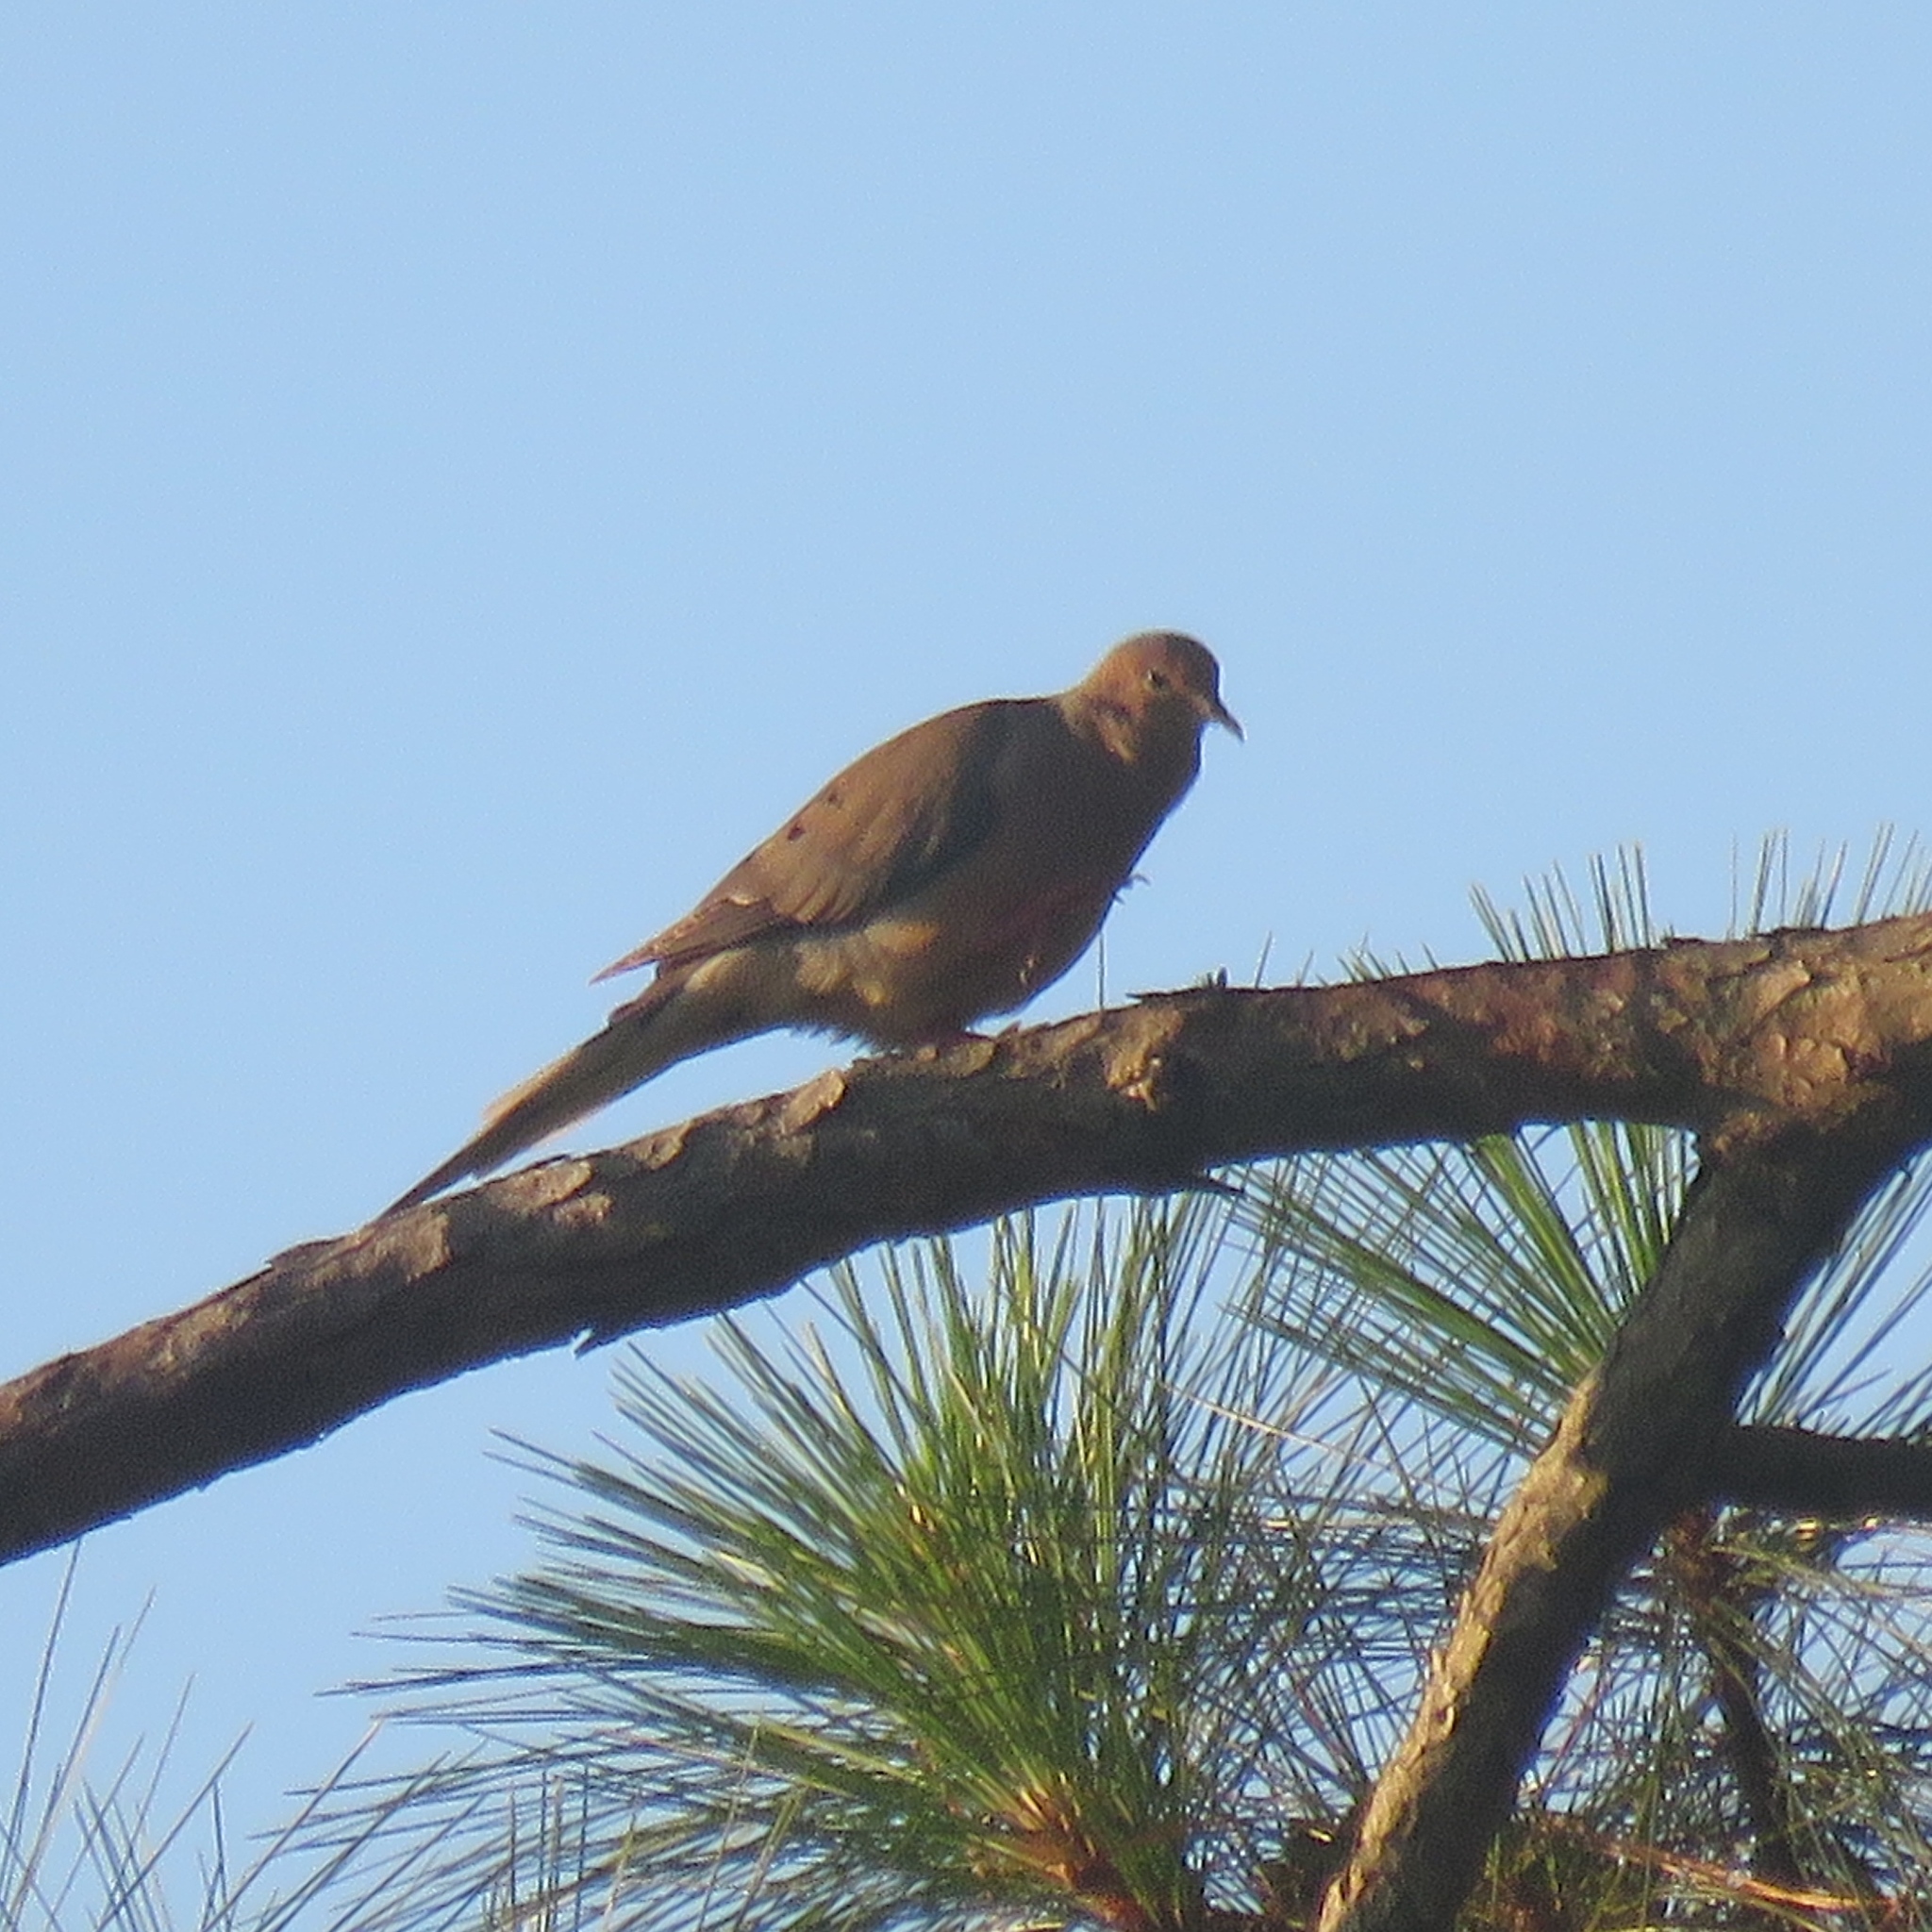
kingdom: Animalia
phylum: Chordata
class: Aves
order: Columbiformes
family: Columbidae
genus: Zenaida
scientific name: Zenaida macroura
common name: Mourning dove
